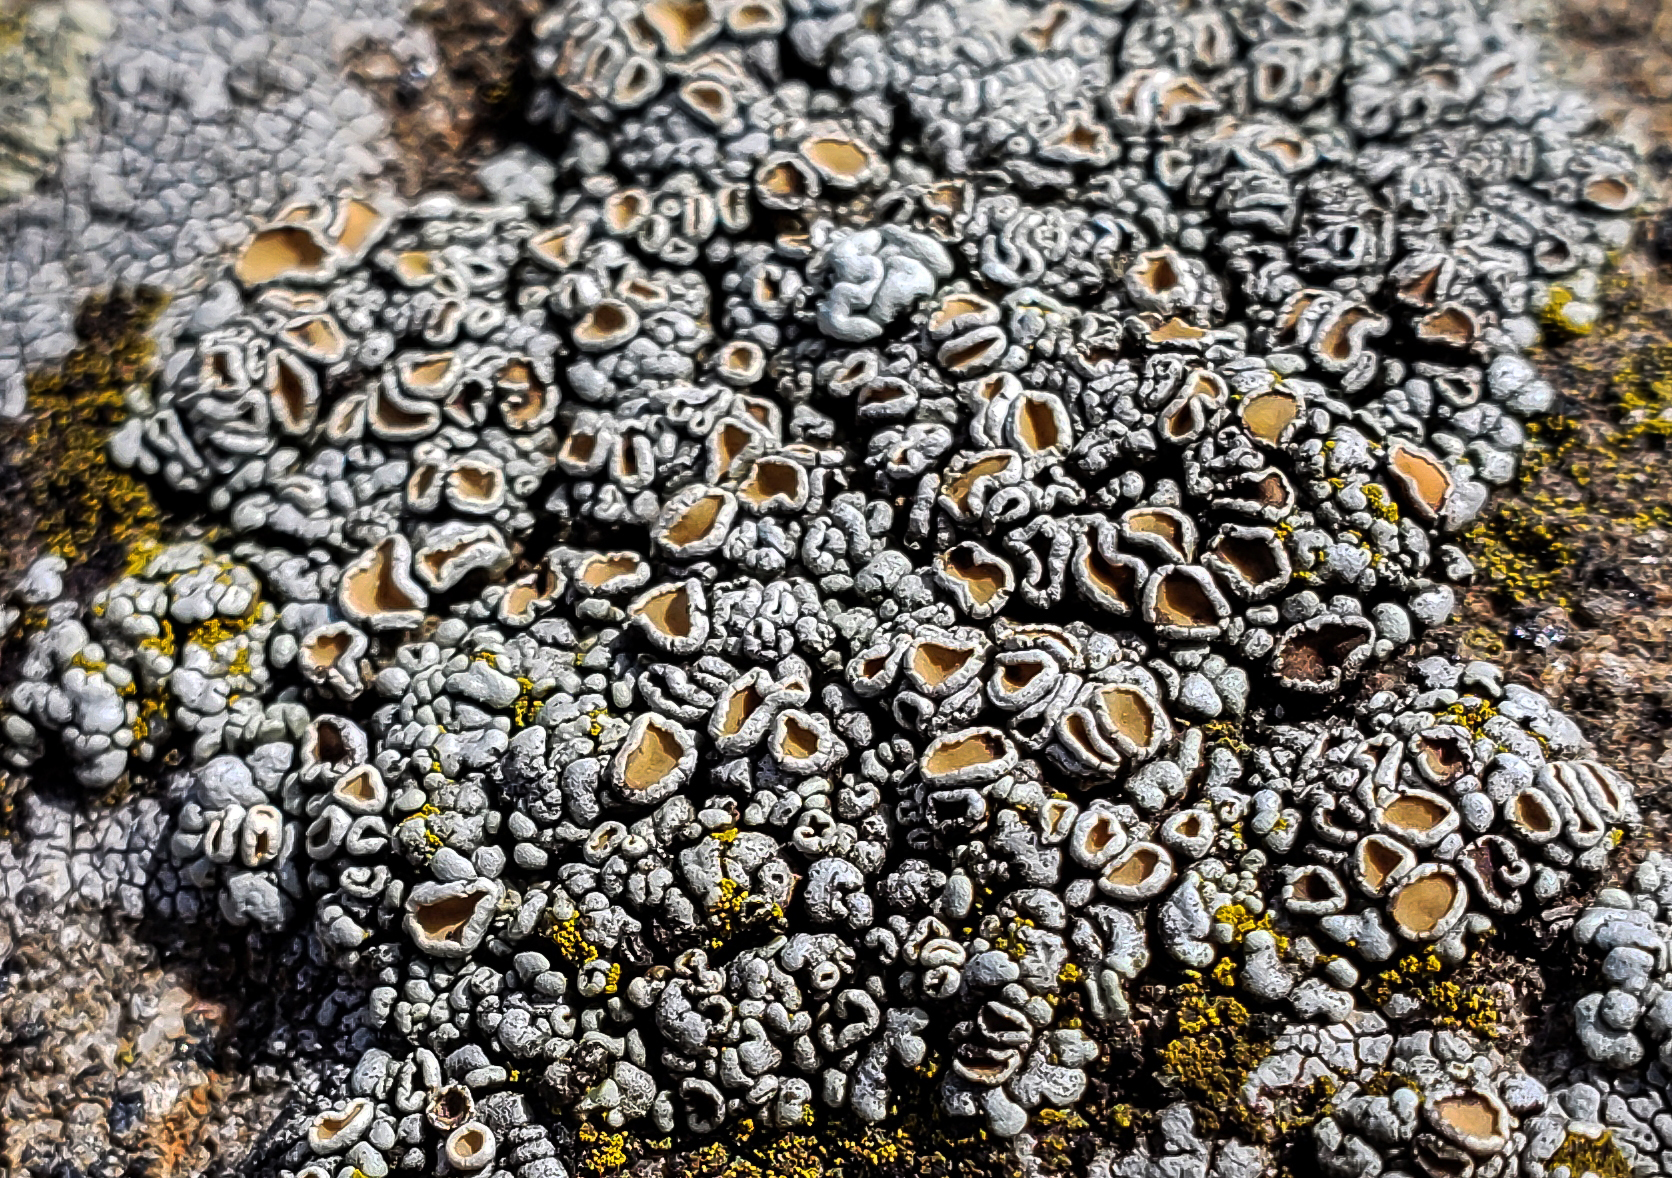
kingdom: Fungi
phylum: Ascomycota
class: Lecanoromycetes
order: Lecanorales
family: Lecanoraceae
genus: Sedelnikovaea
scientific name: Sedelnikovaea subdiscrepans
